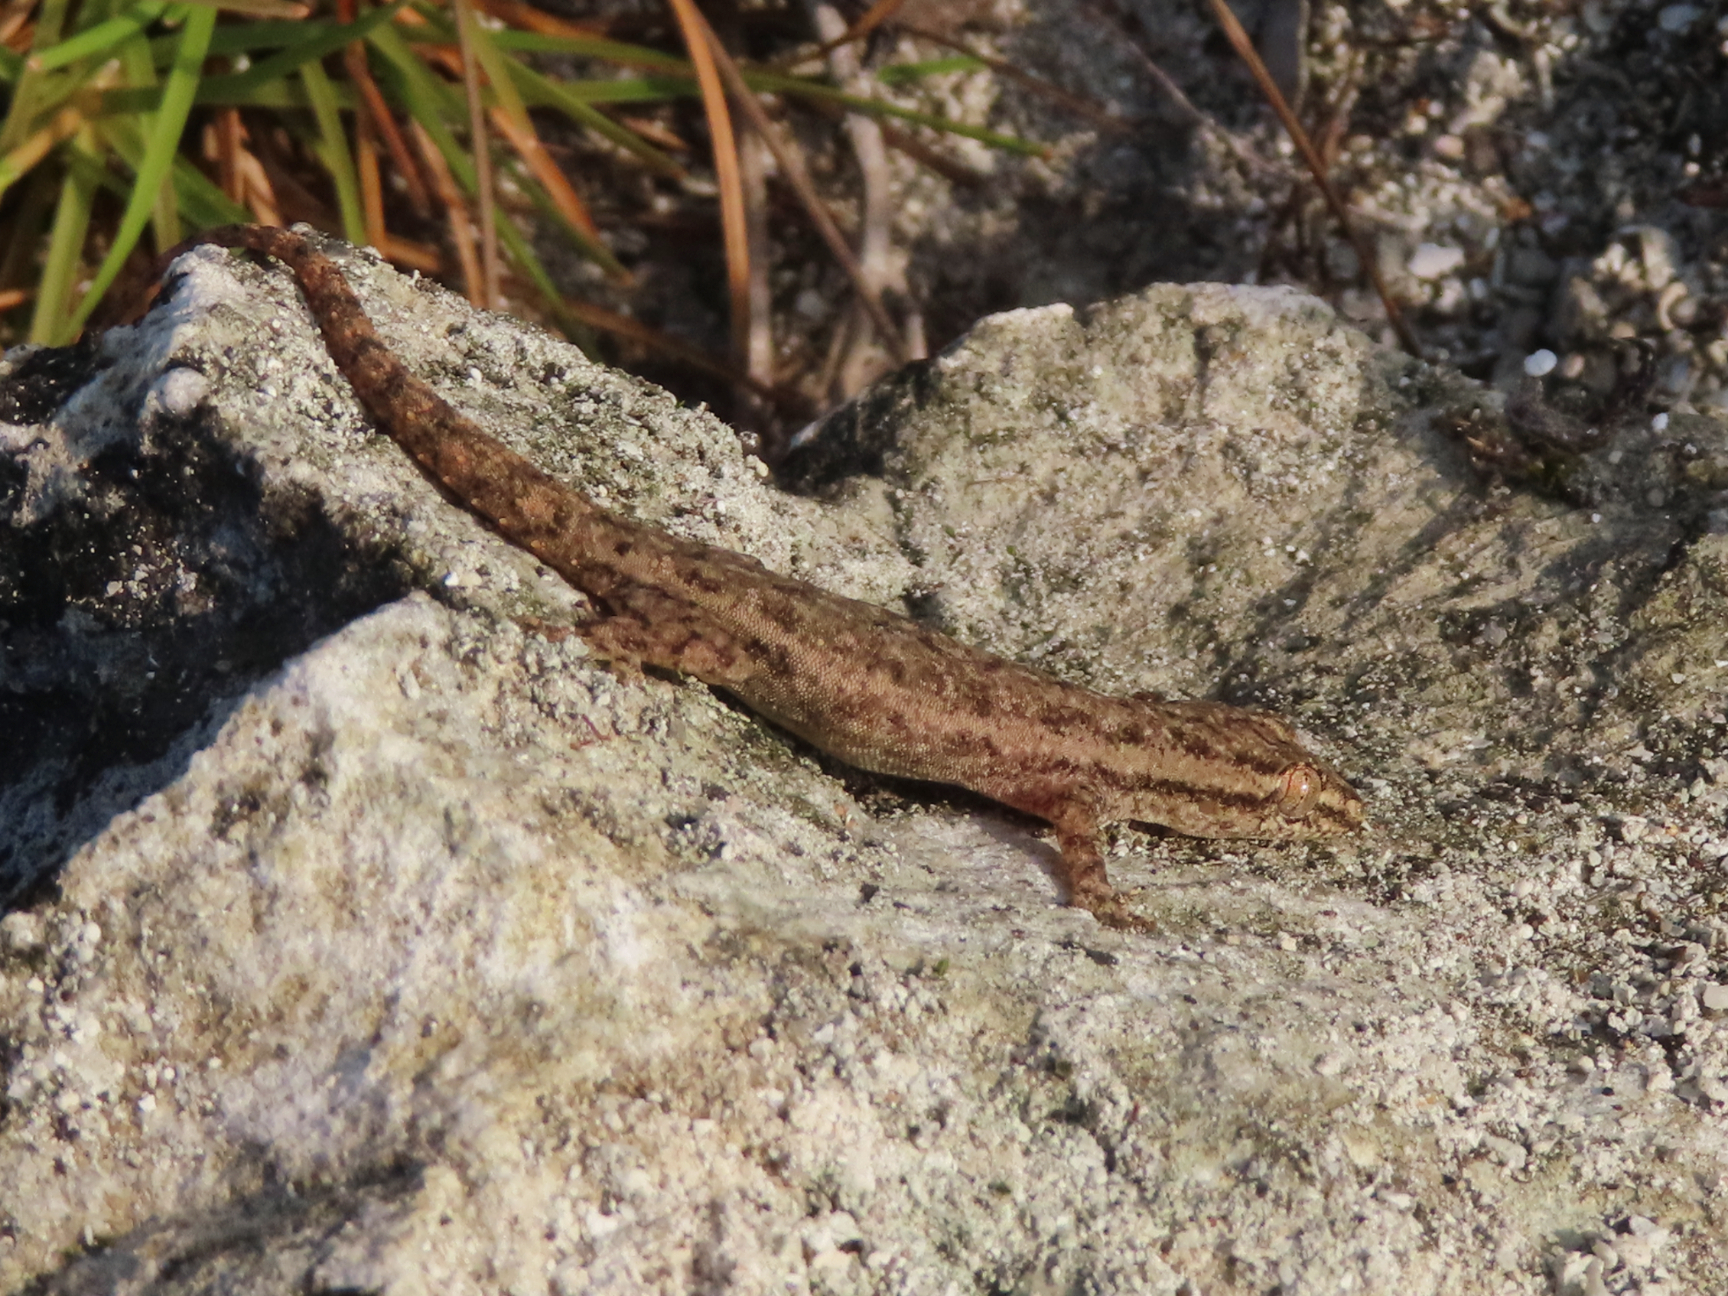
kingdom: Animalia
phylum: Chordata
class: Squamata
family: Gekkonidae
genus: Hemidactylus
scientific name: Hemidactylus frenatus
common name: Common house gecko
